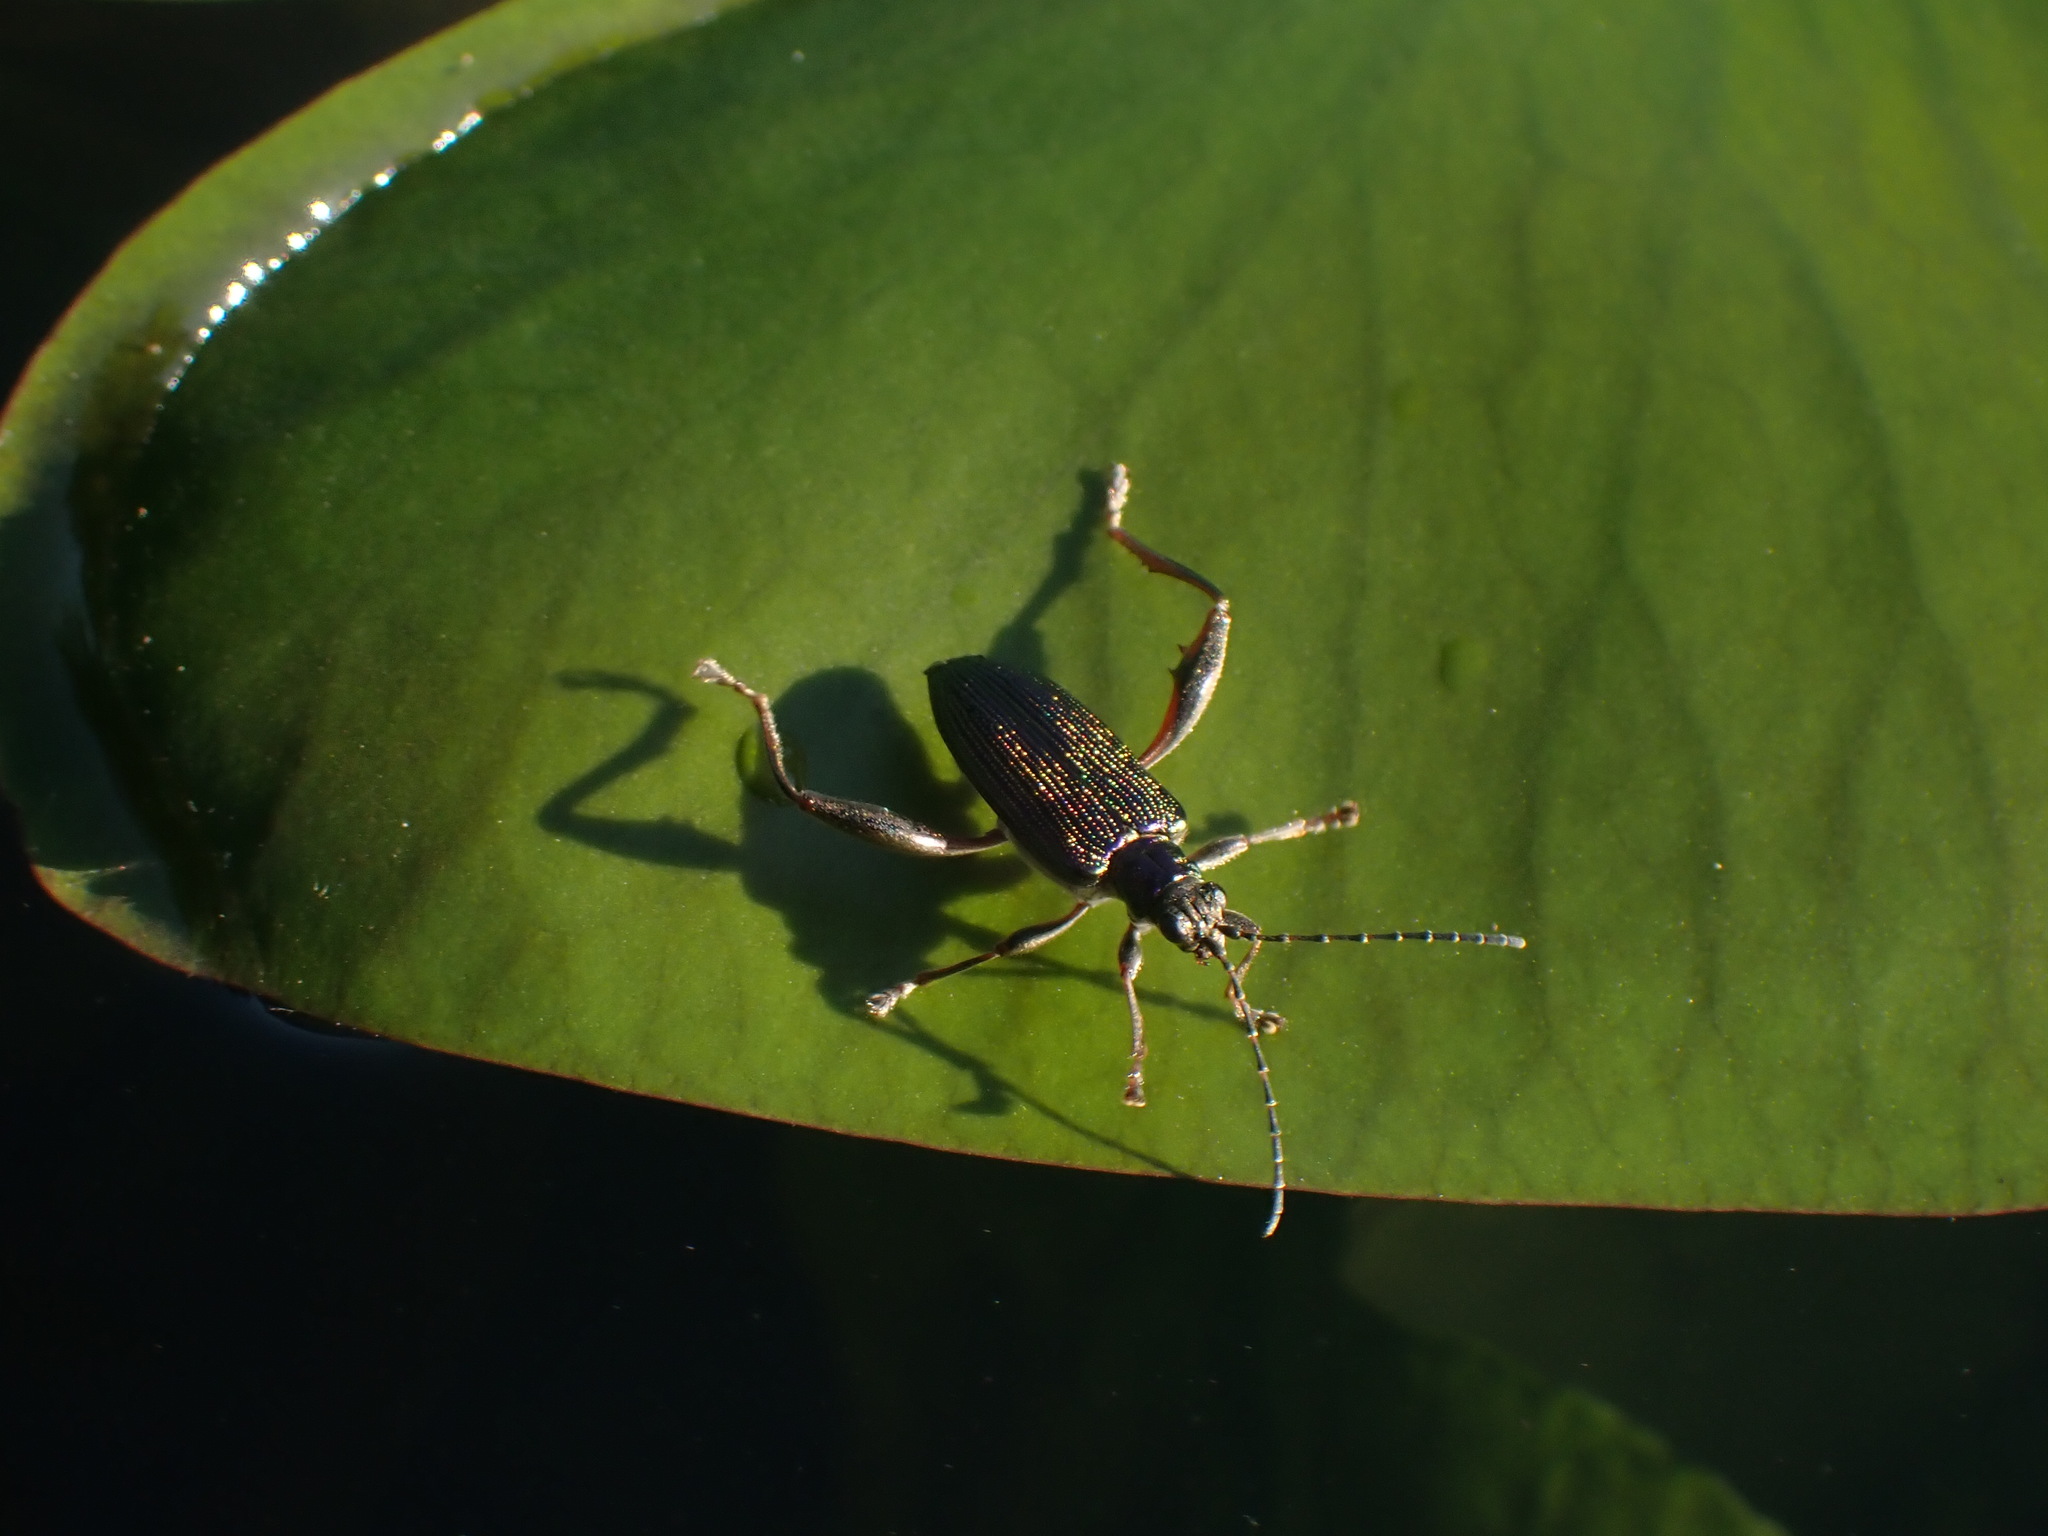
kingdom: Animalia
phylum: Arthropoda
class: Insecta
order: Coleoptera
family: Chrysomelidae
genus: Donacia
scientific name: Donacia crassipes
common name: Water-lily reed beetle
